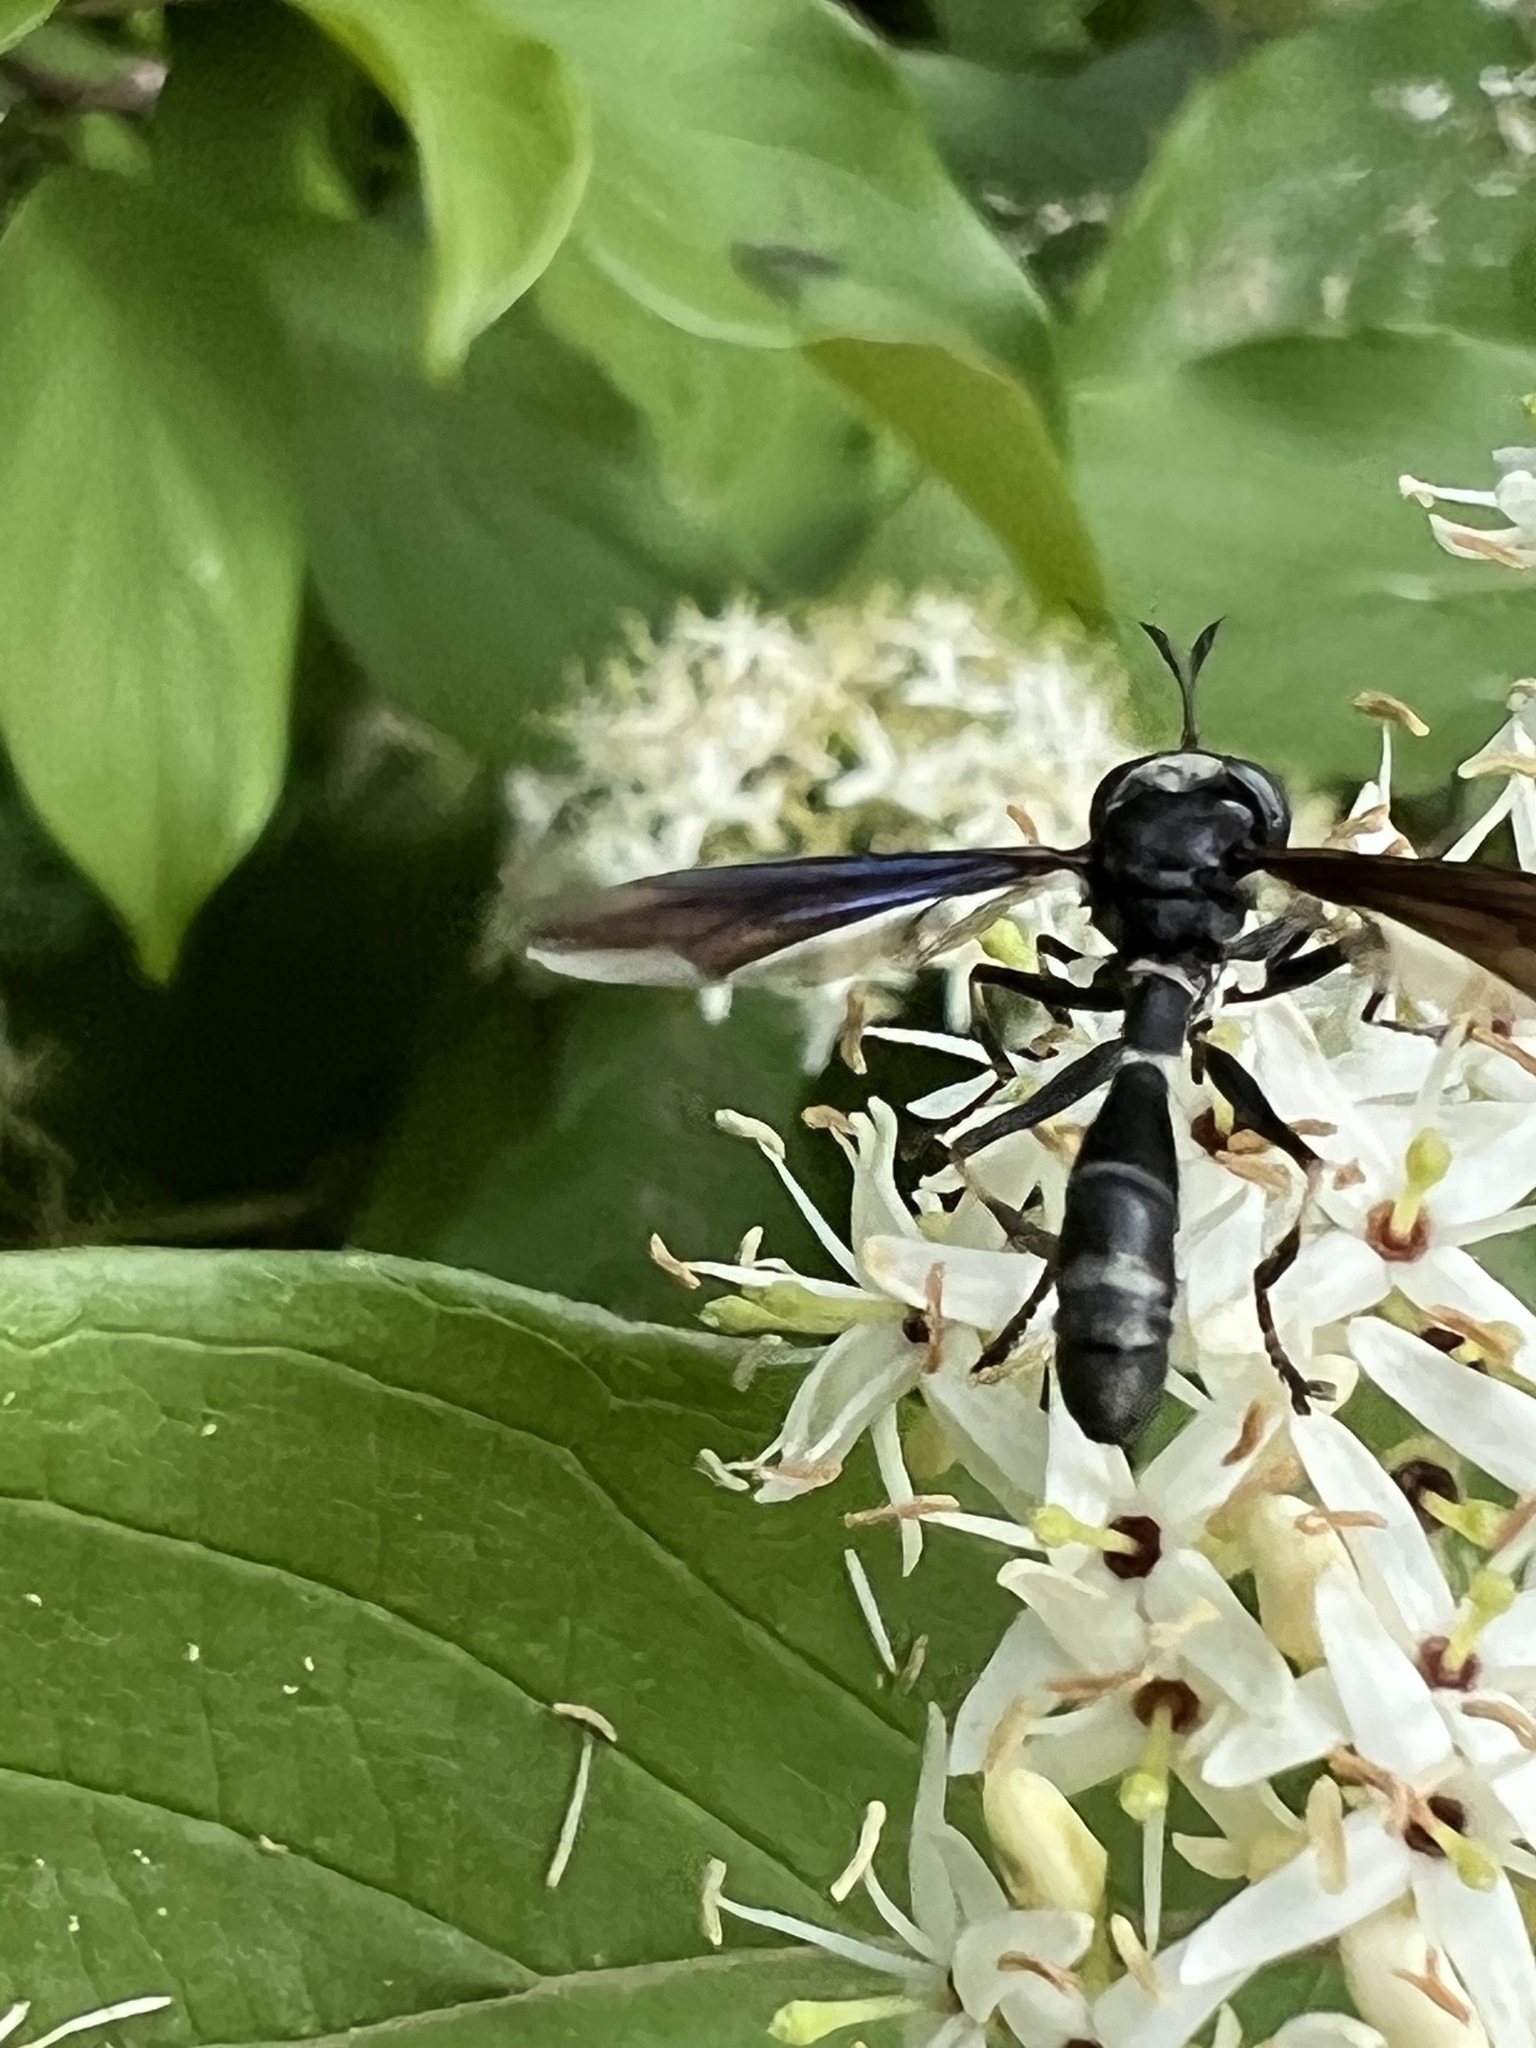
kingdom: Animalia
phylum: Arthropoda
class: Insecta
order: Diptera
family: Conopidae
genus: Physocephala
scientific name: Physocephala tibialis
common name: Common eastern physocephala
